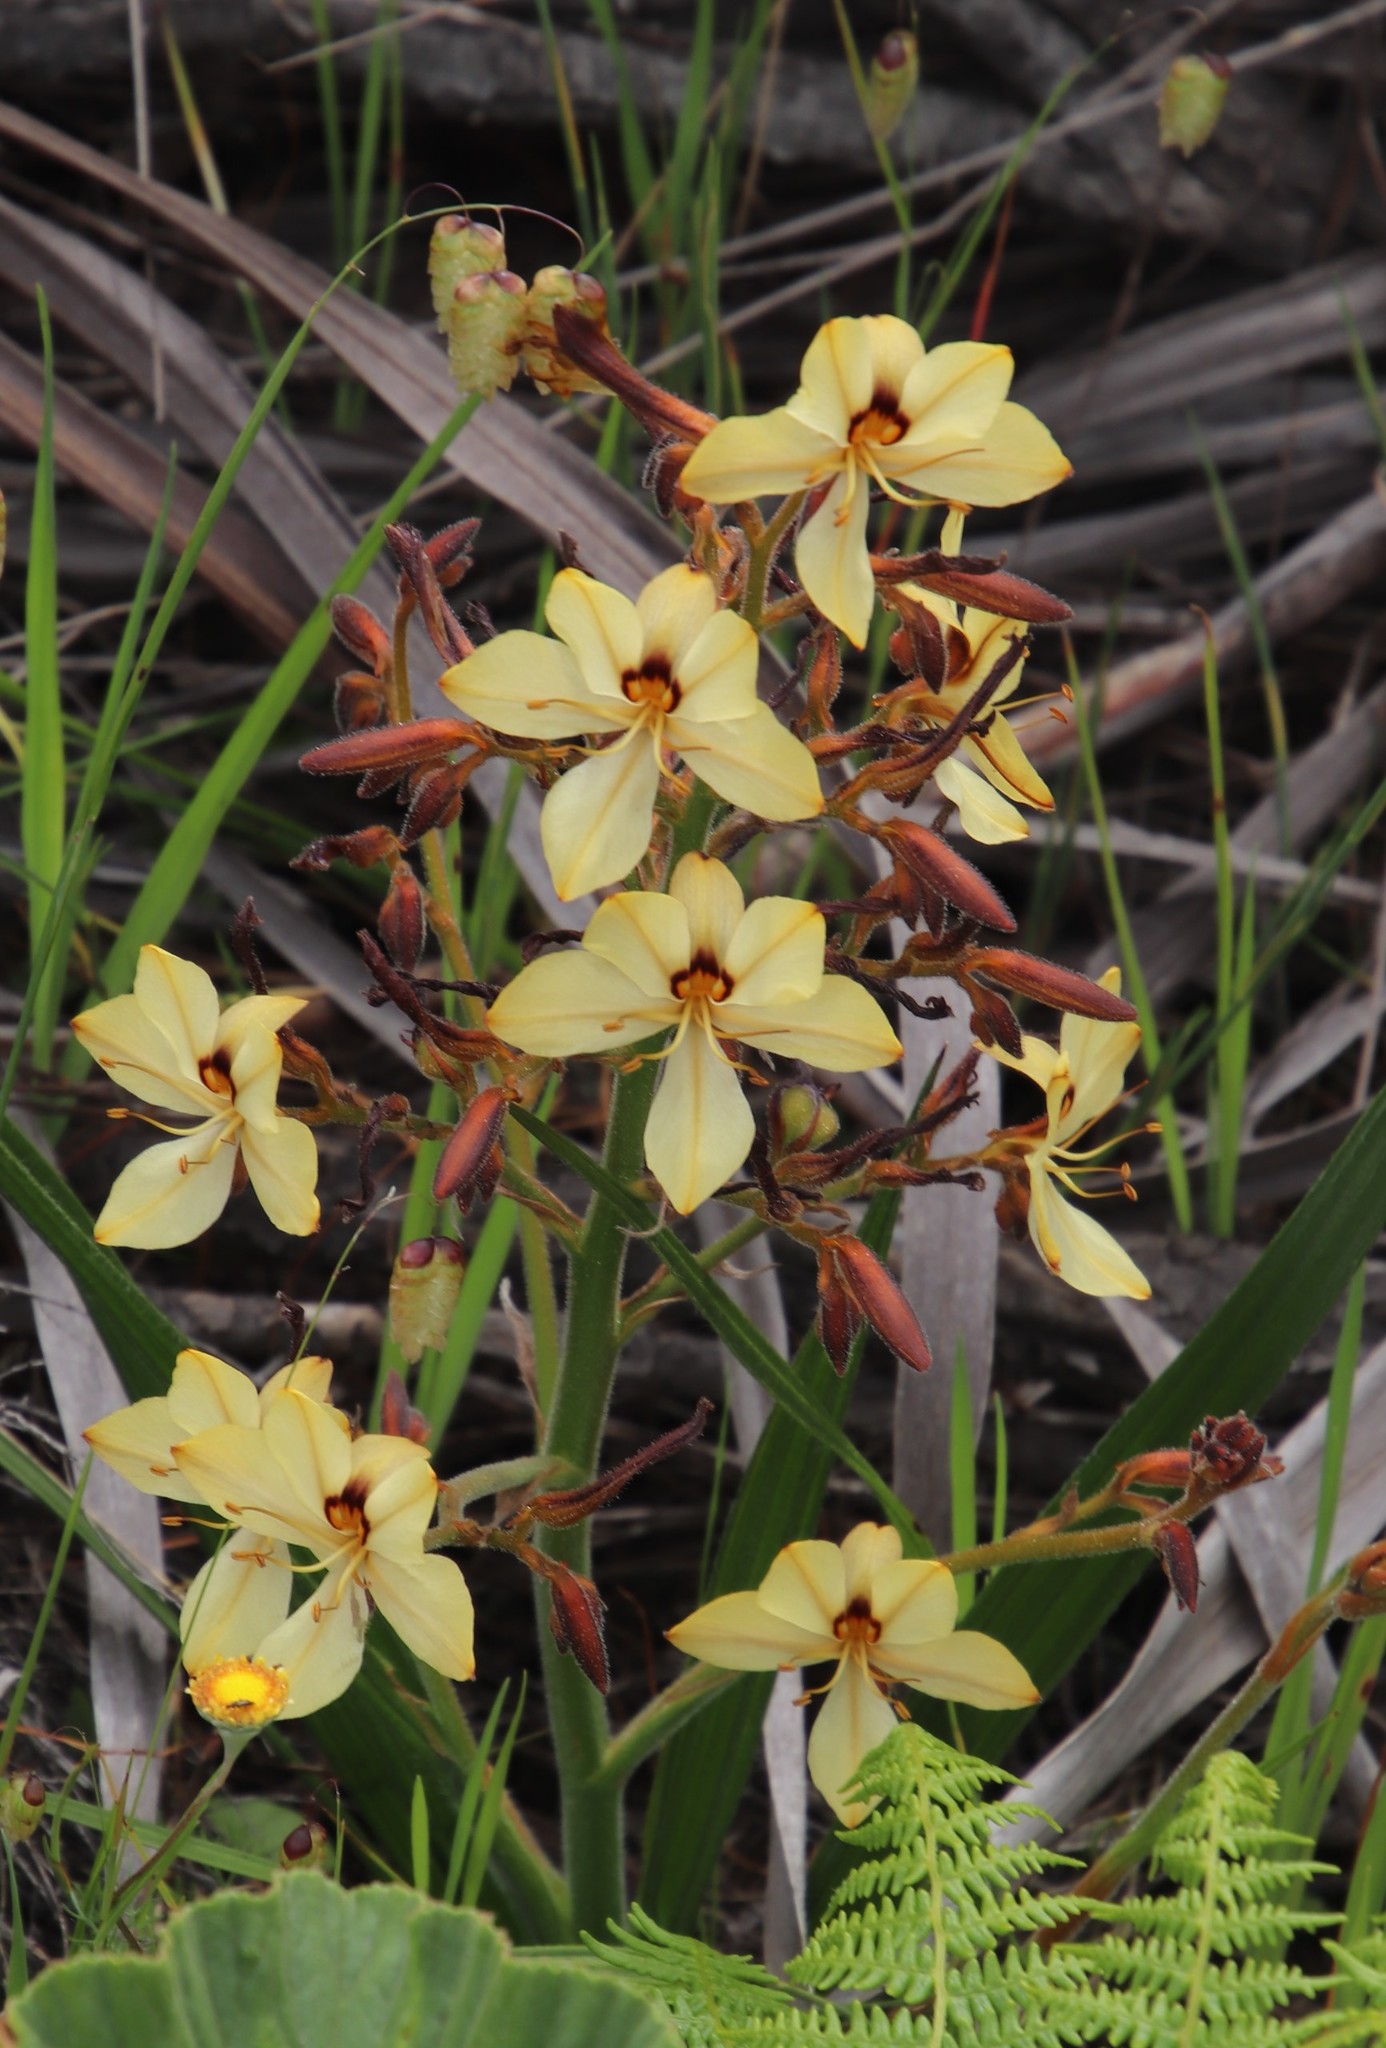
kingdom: Plantae
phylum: Tracheophyta
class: Liliopsida
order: Commelinales
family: Haemodoraceae
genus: Wachendorfia
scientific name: Wachendorfia paniculata
